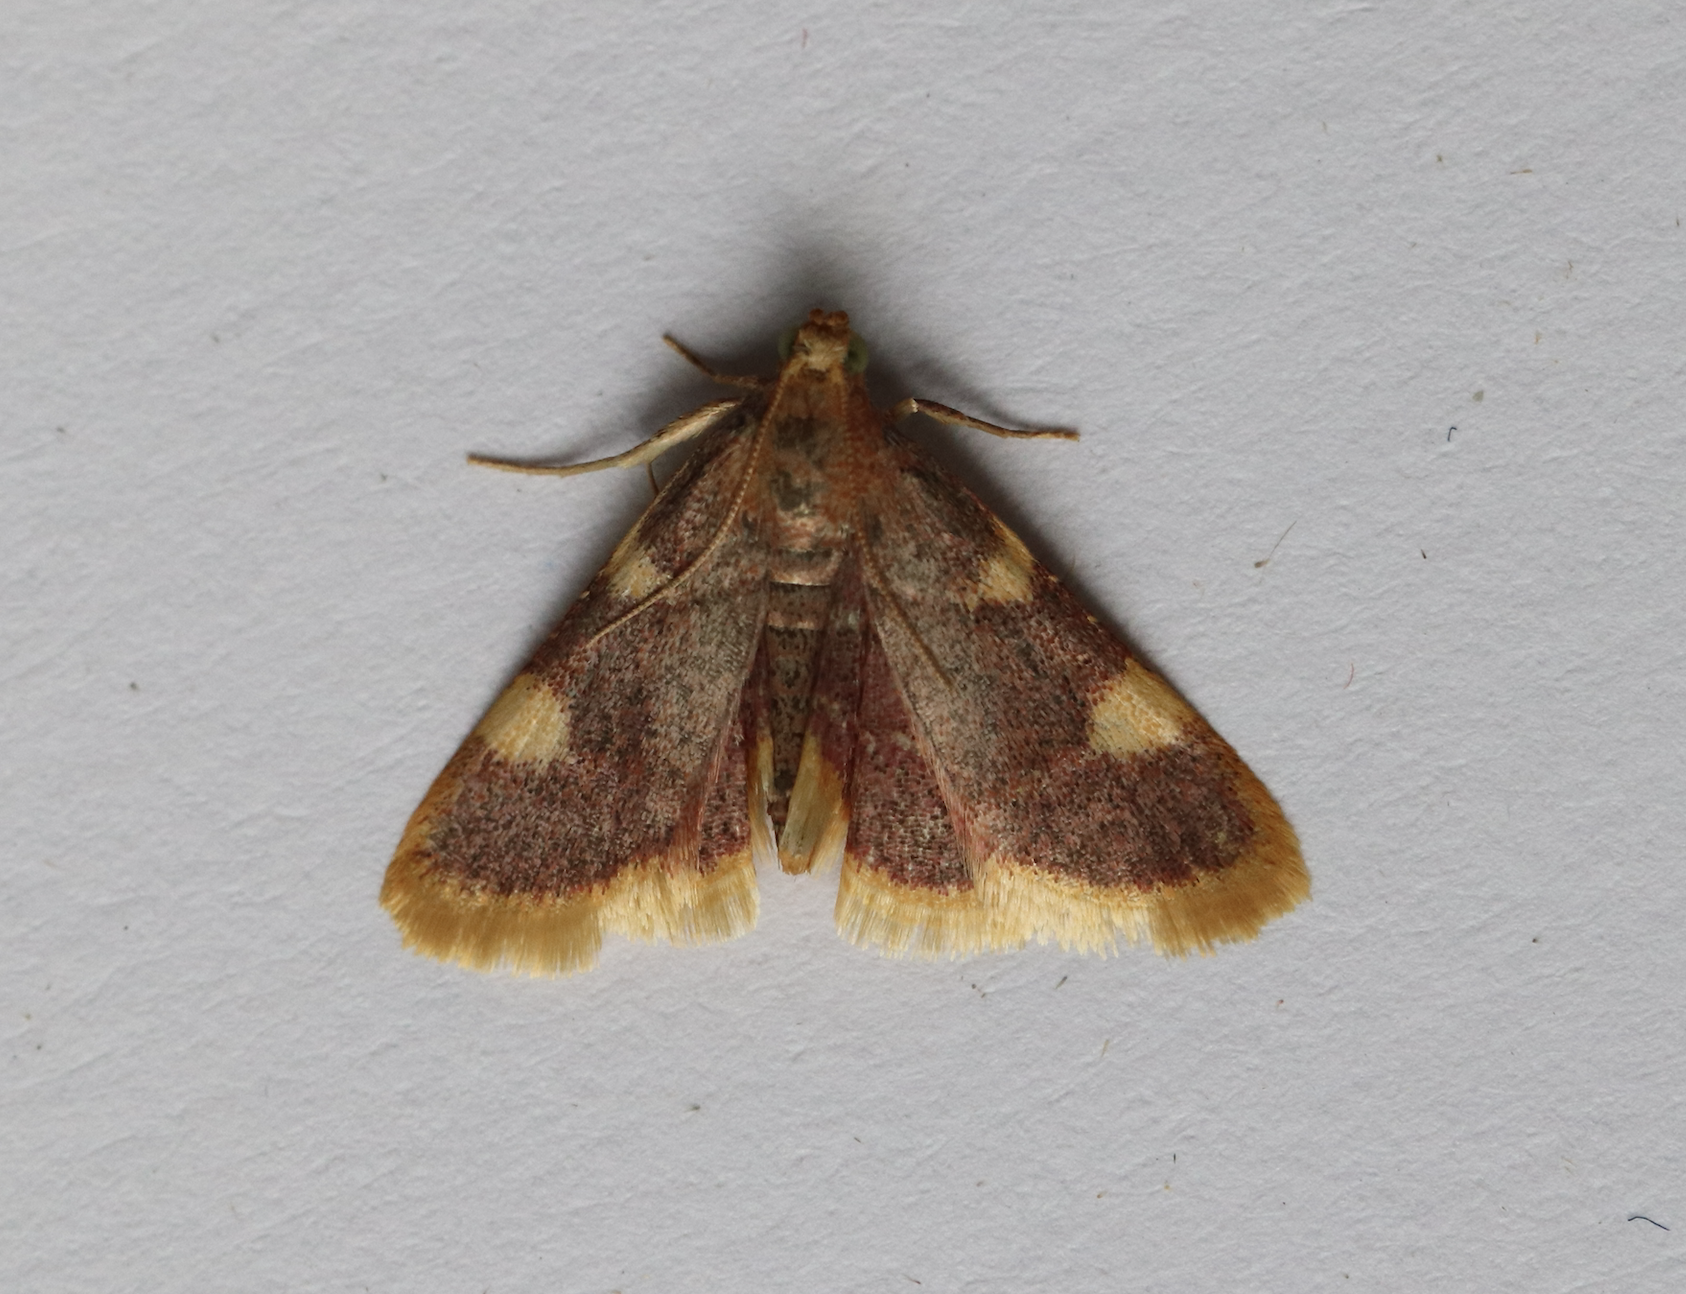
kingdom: Animalia
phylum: Arthropoda
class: Insecta
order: Lepidoptera
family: Pyralidae
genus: Hypsopygia
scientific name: Hypsopygia costalis
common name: Gold triangle
